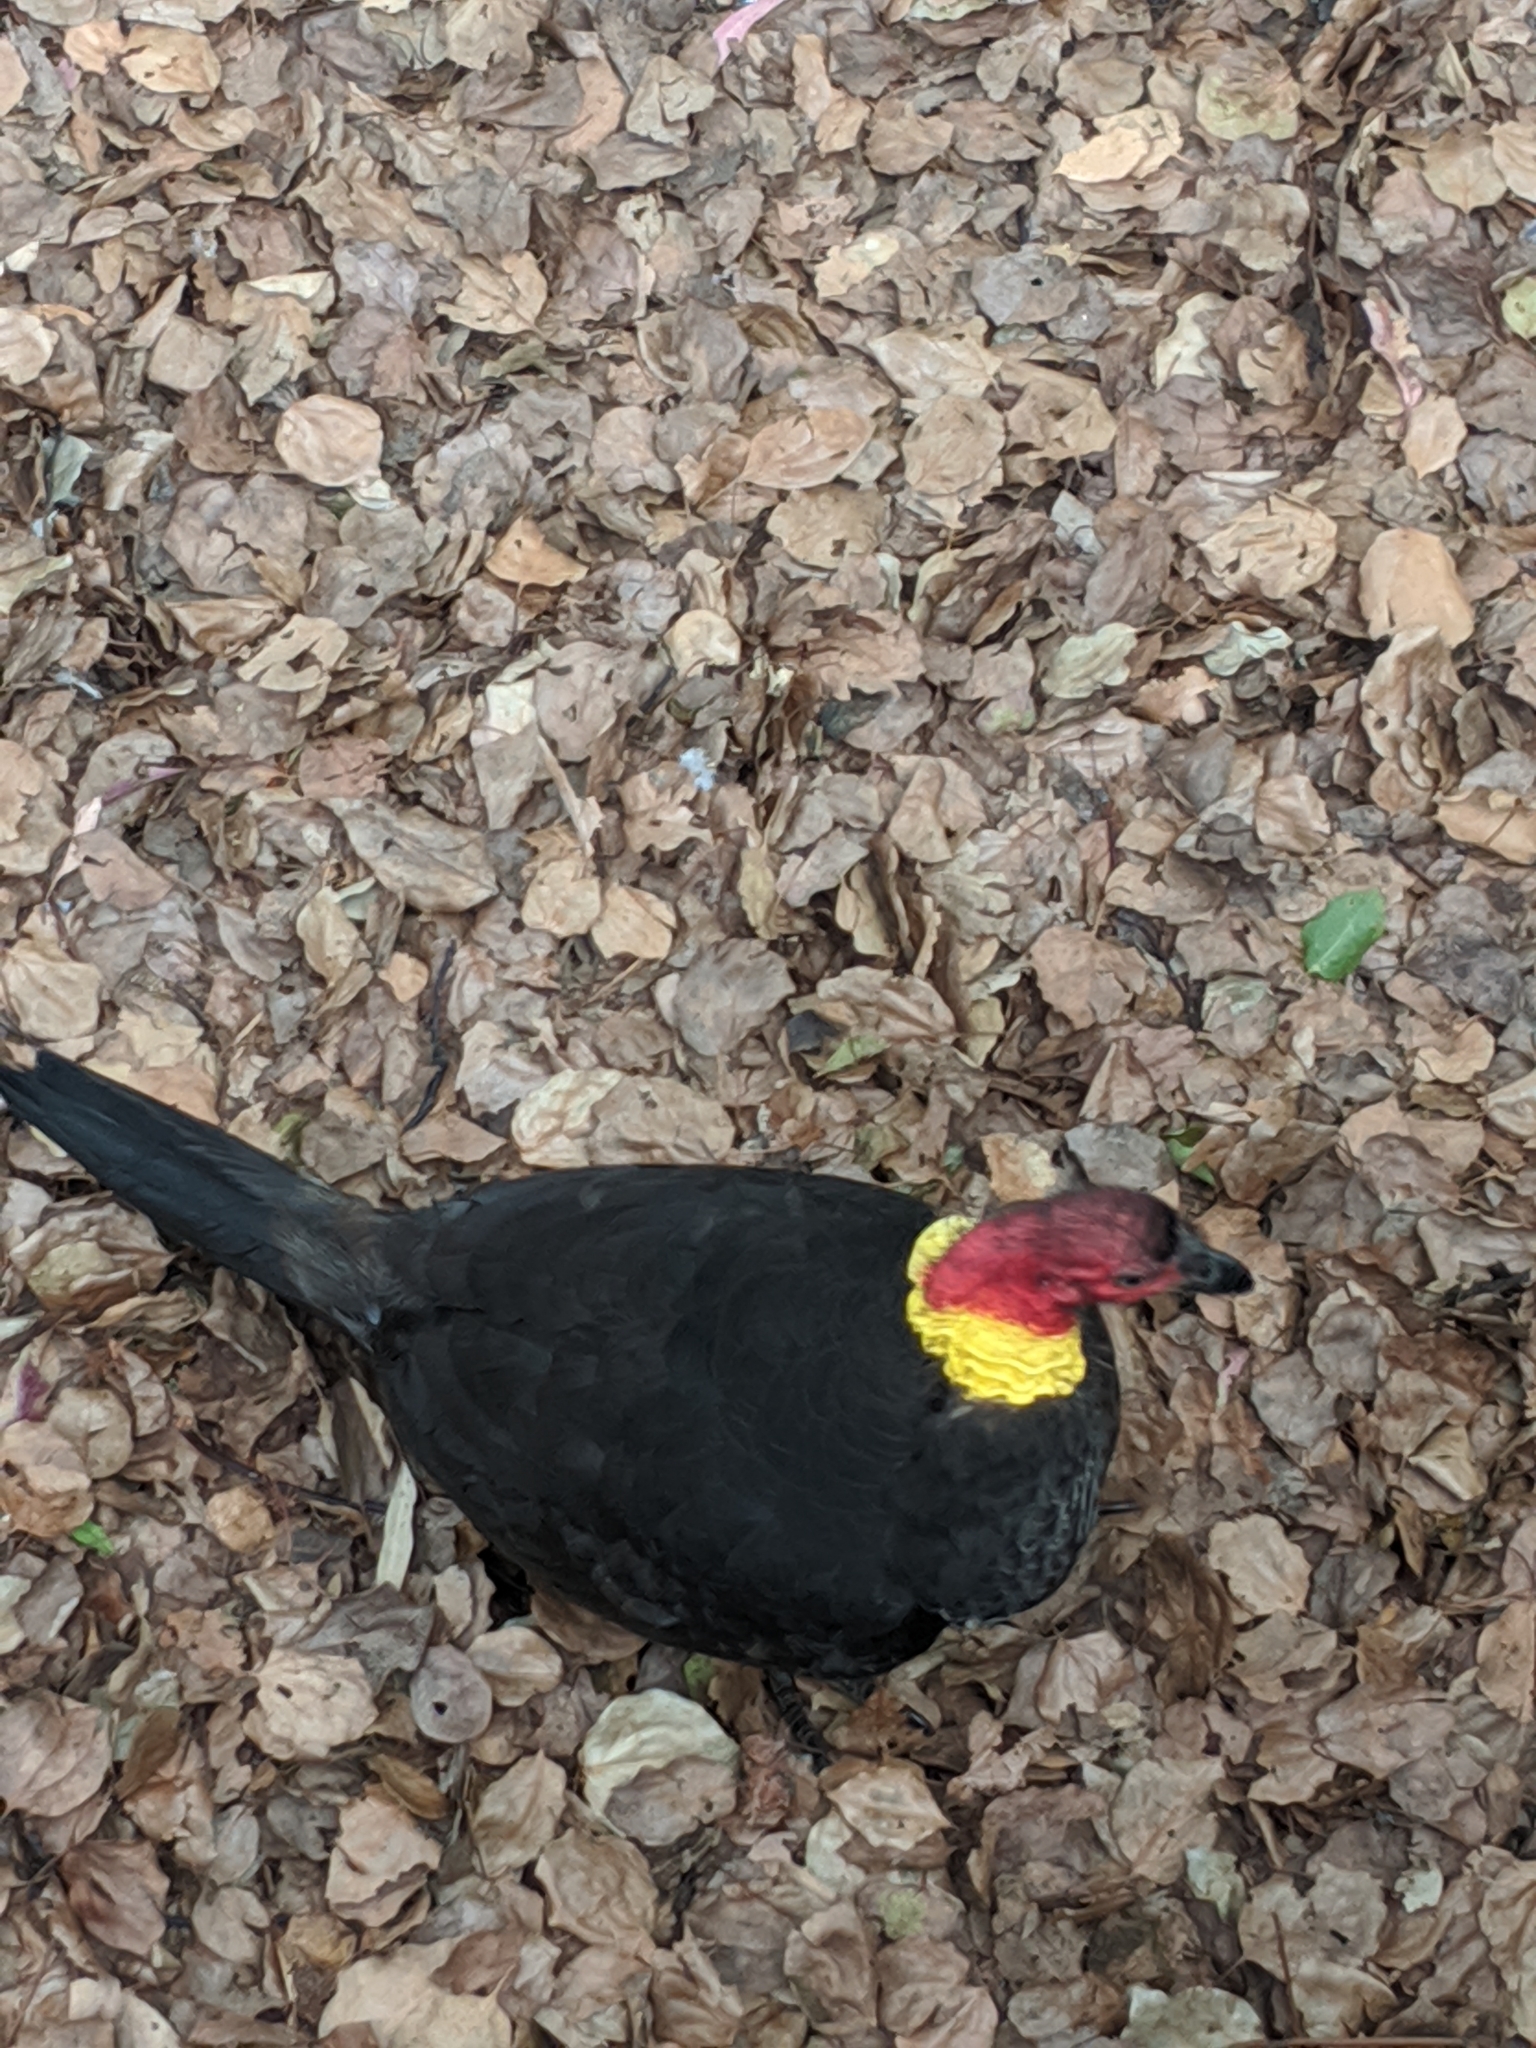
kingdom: Animalia
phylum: Chordata
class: Aves
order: Galliformes
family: Megapodiidae
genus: Alectura
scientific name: Alectura lathami
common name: Australian brushturkey
